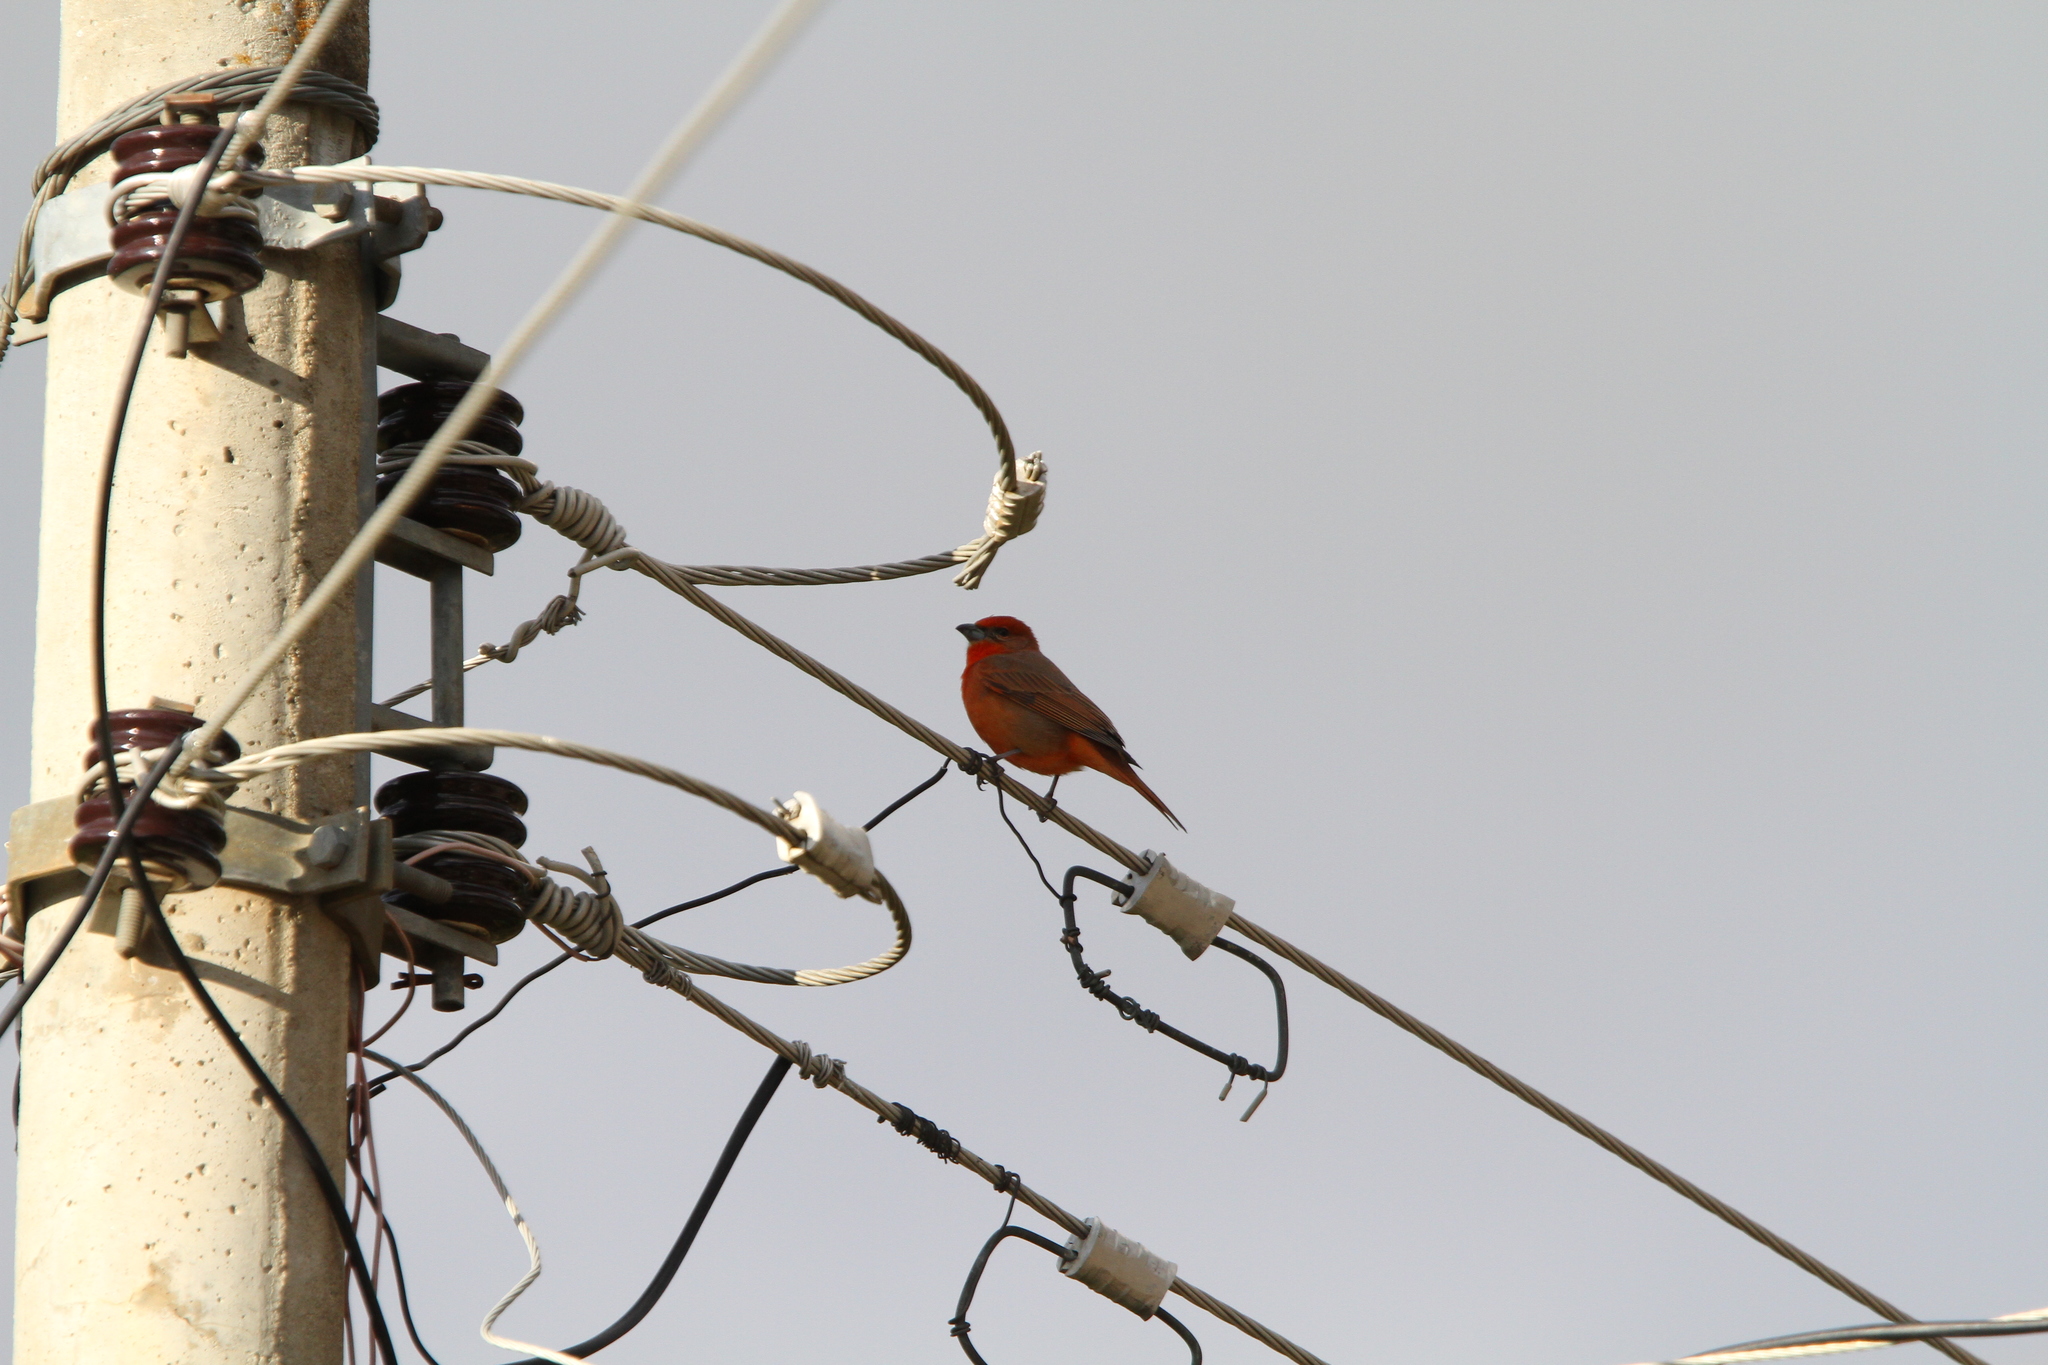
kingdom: Animalia
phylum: Chordata
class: Aves
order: Passeriformes
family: Cardinalidae
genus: Piranga
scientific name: Piranga flava
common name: Red tanager
